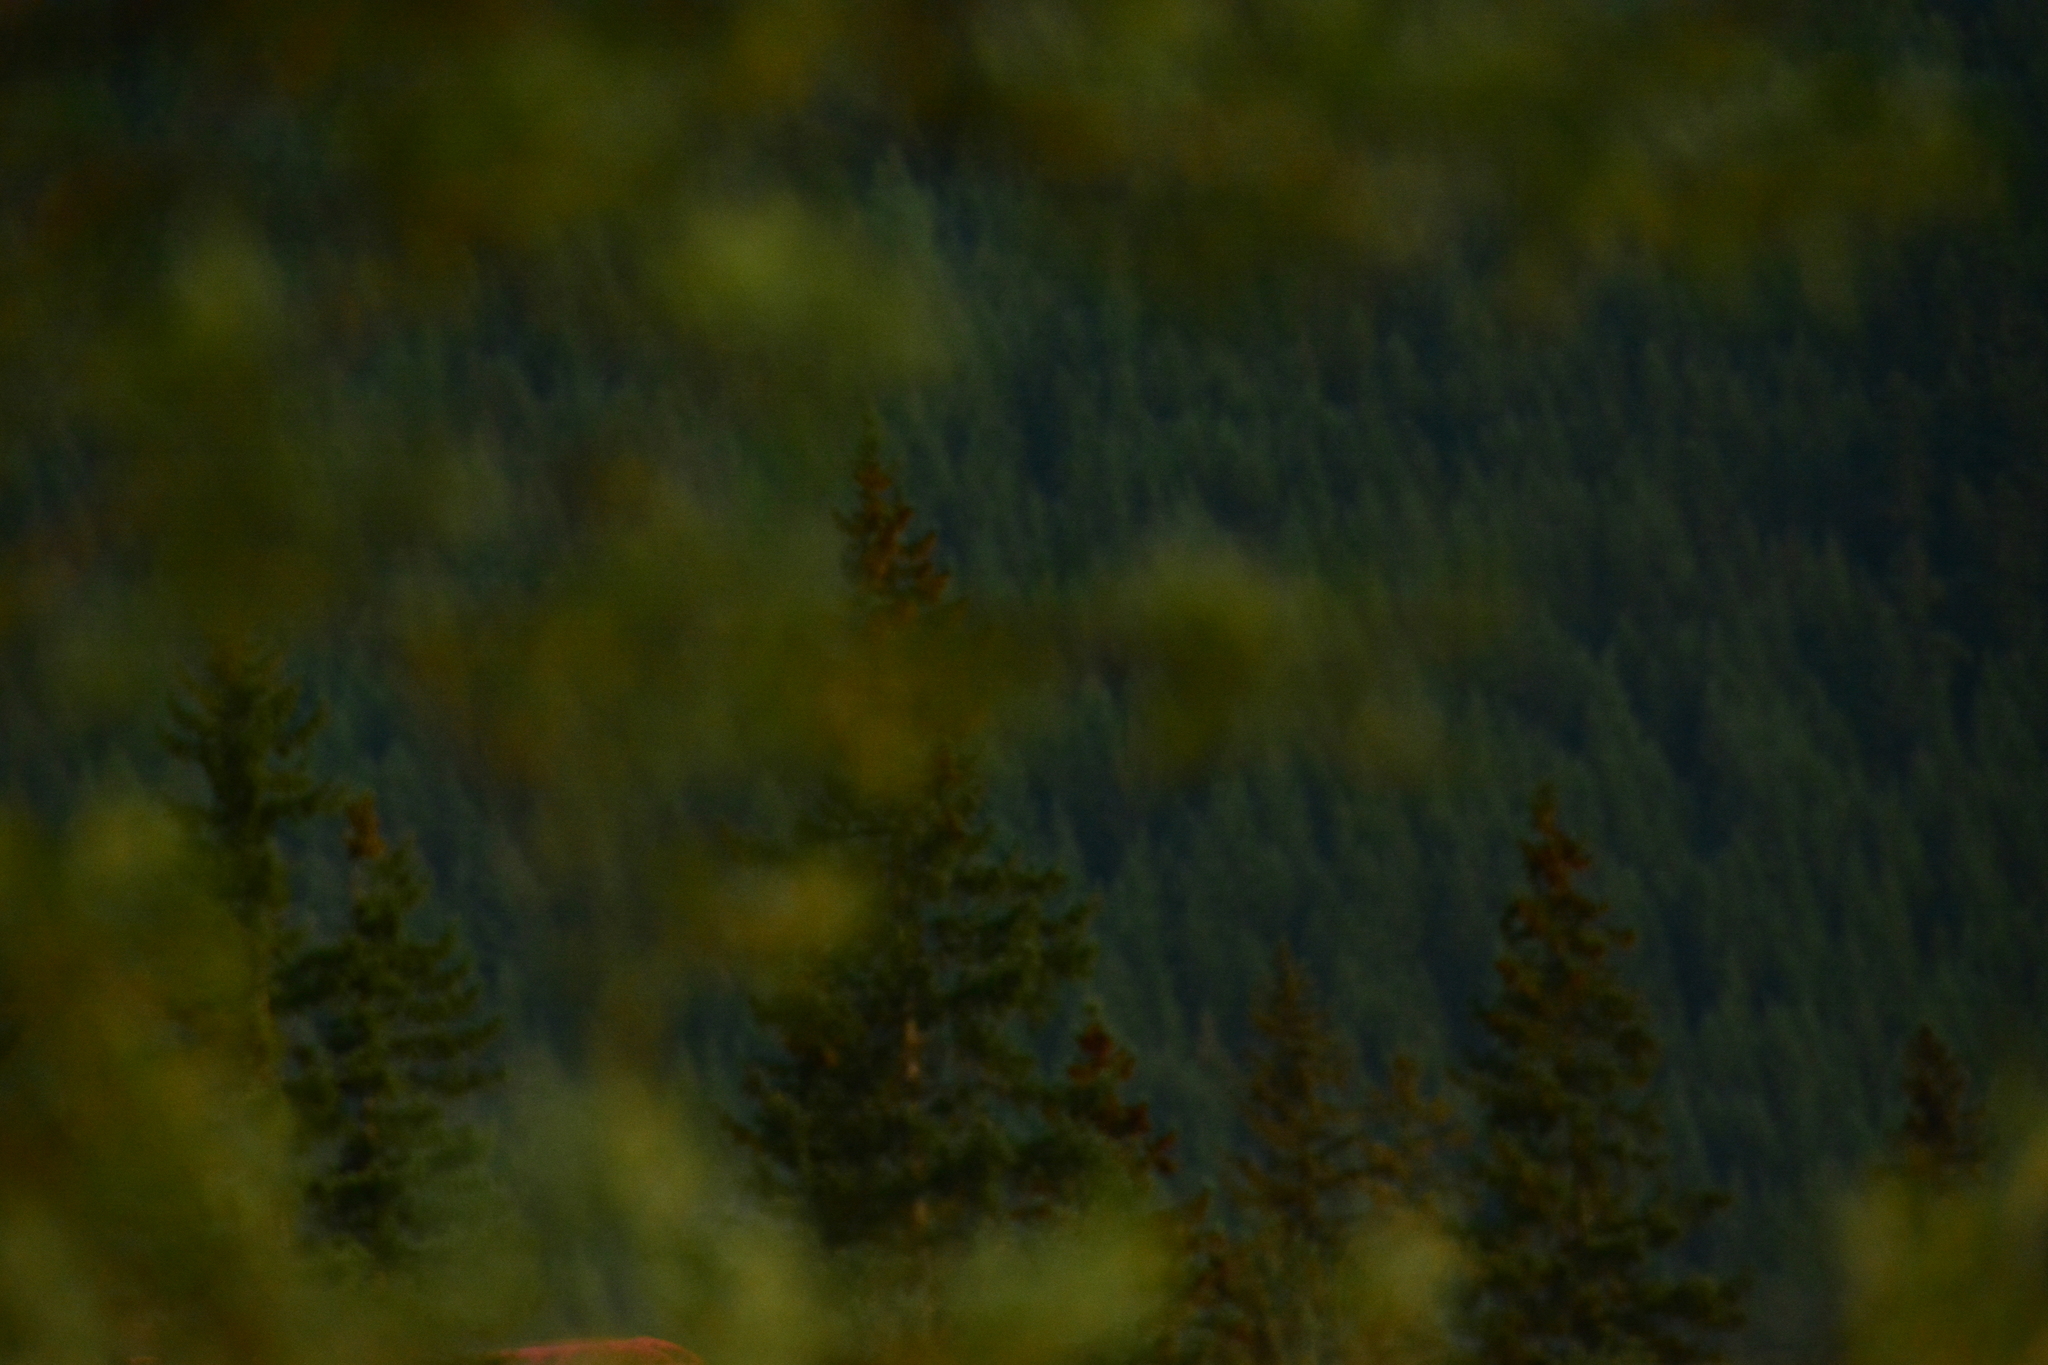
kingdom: Plantae
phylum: Tracheophyta
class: Pinopsida
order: Pinales
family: Pinaceae
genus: Pseudotsuga
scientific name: Pseudotsuga menziesii
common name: Douglas fir
